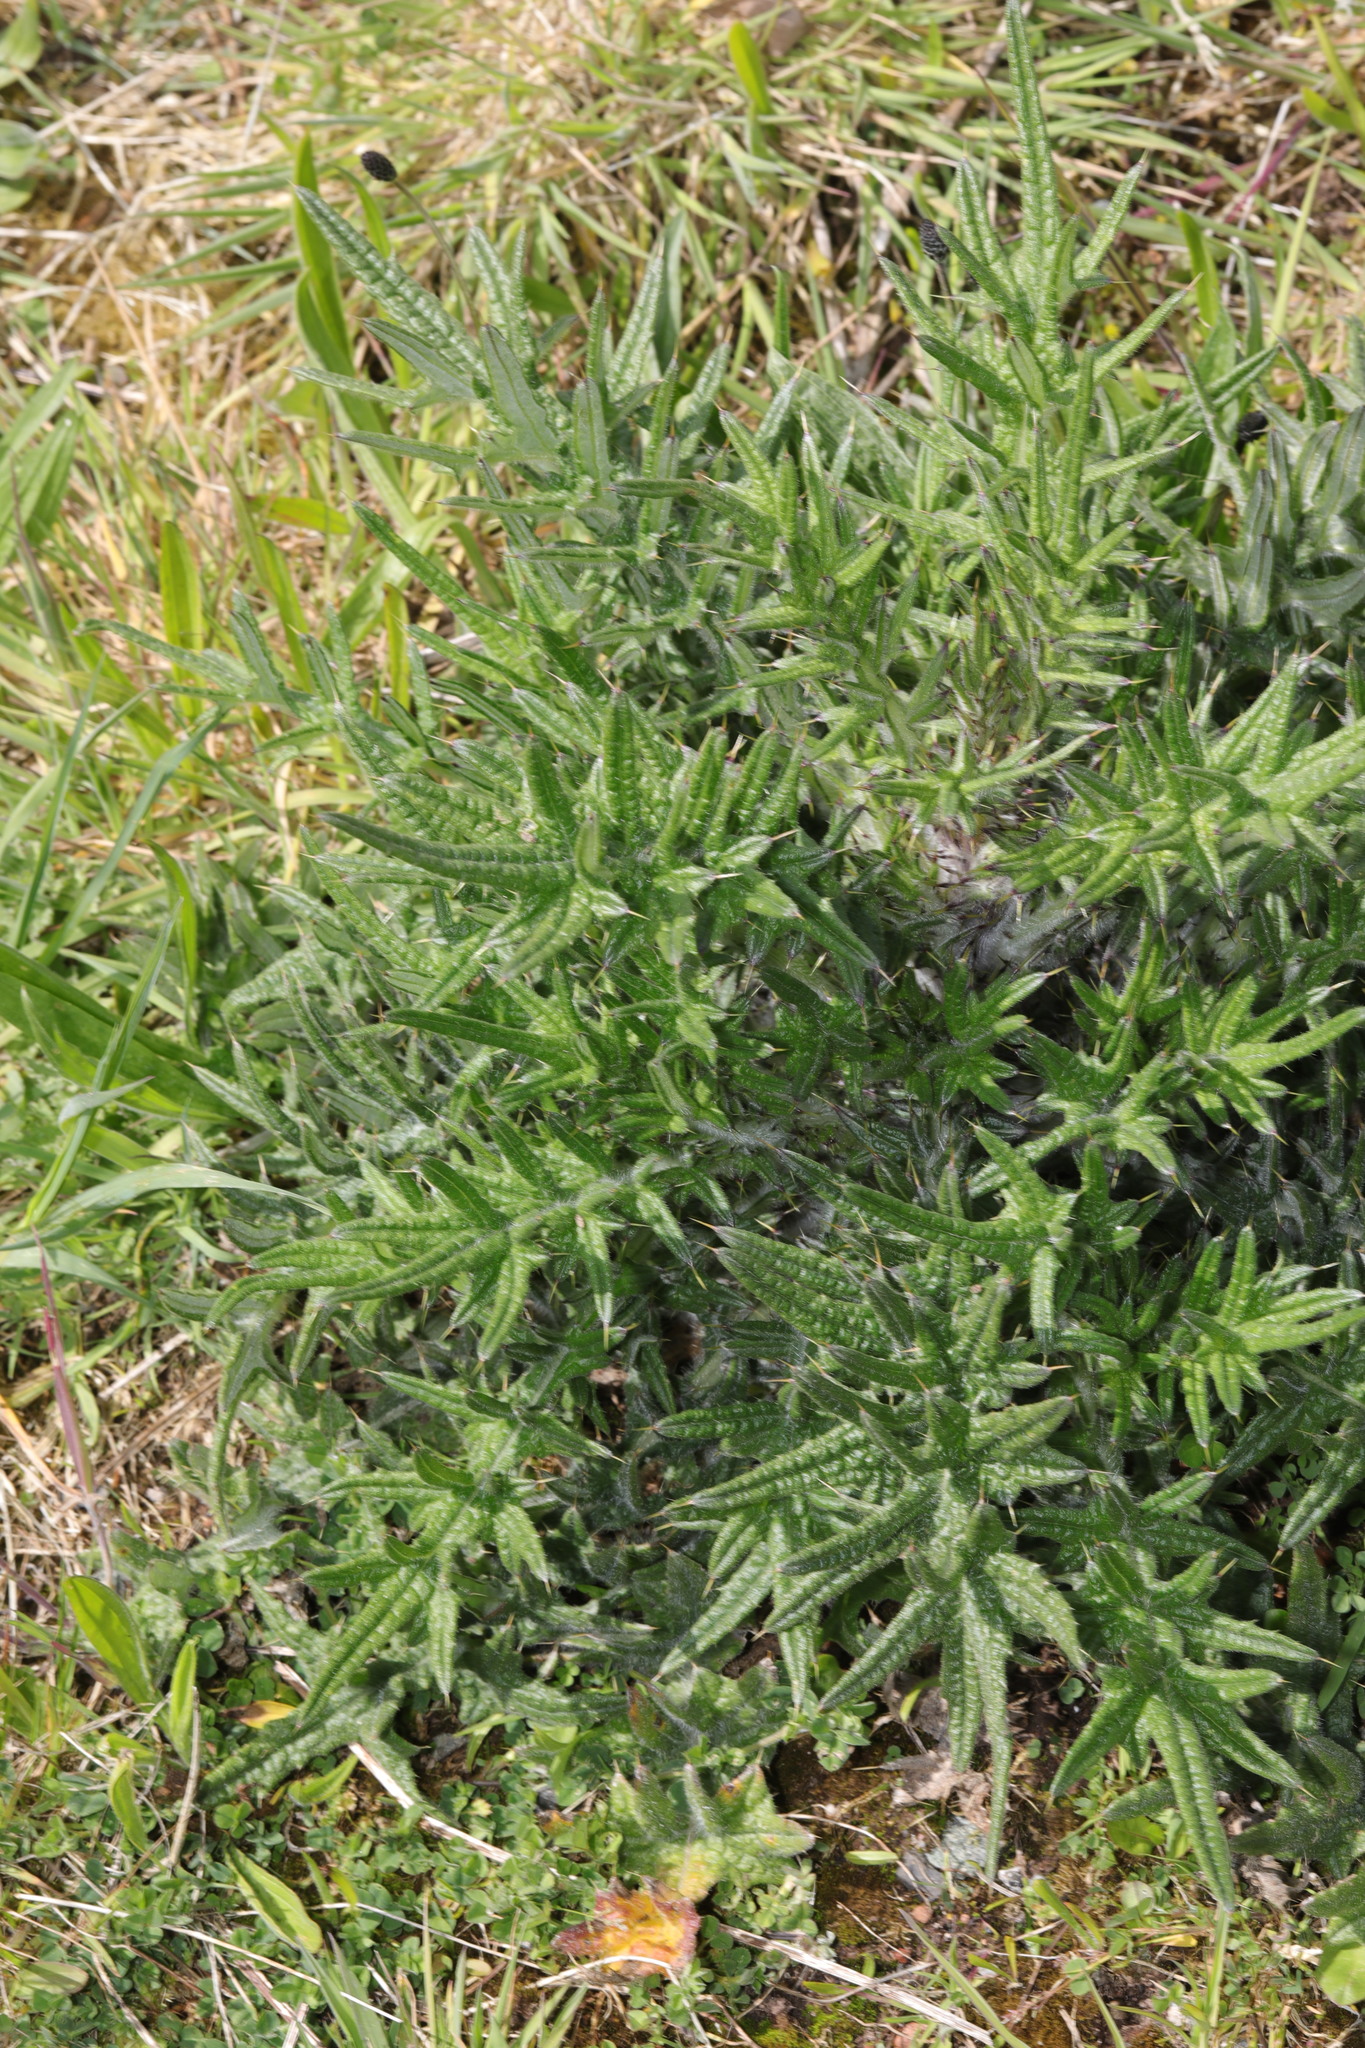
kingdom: Plantae
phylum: Tracheophyta
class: Magnoliopsida
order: Asterales
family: Asteraceae
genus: Cirsium
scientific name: Cirsium vulgare
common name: Bull thistle
